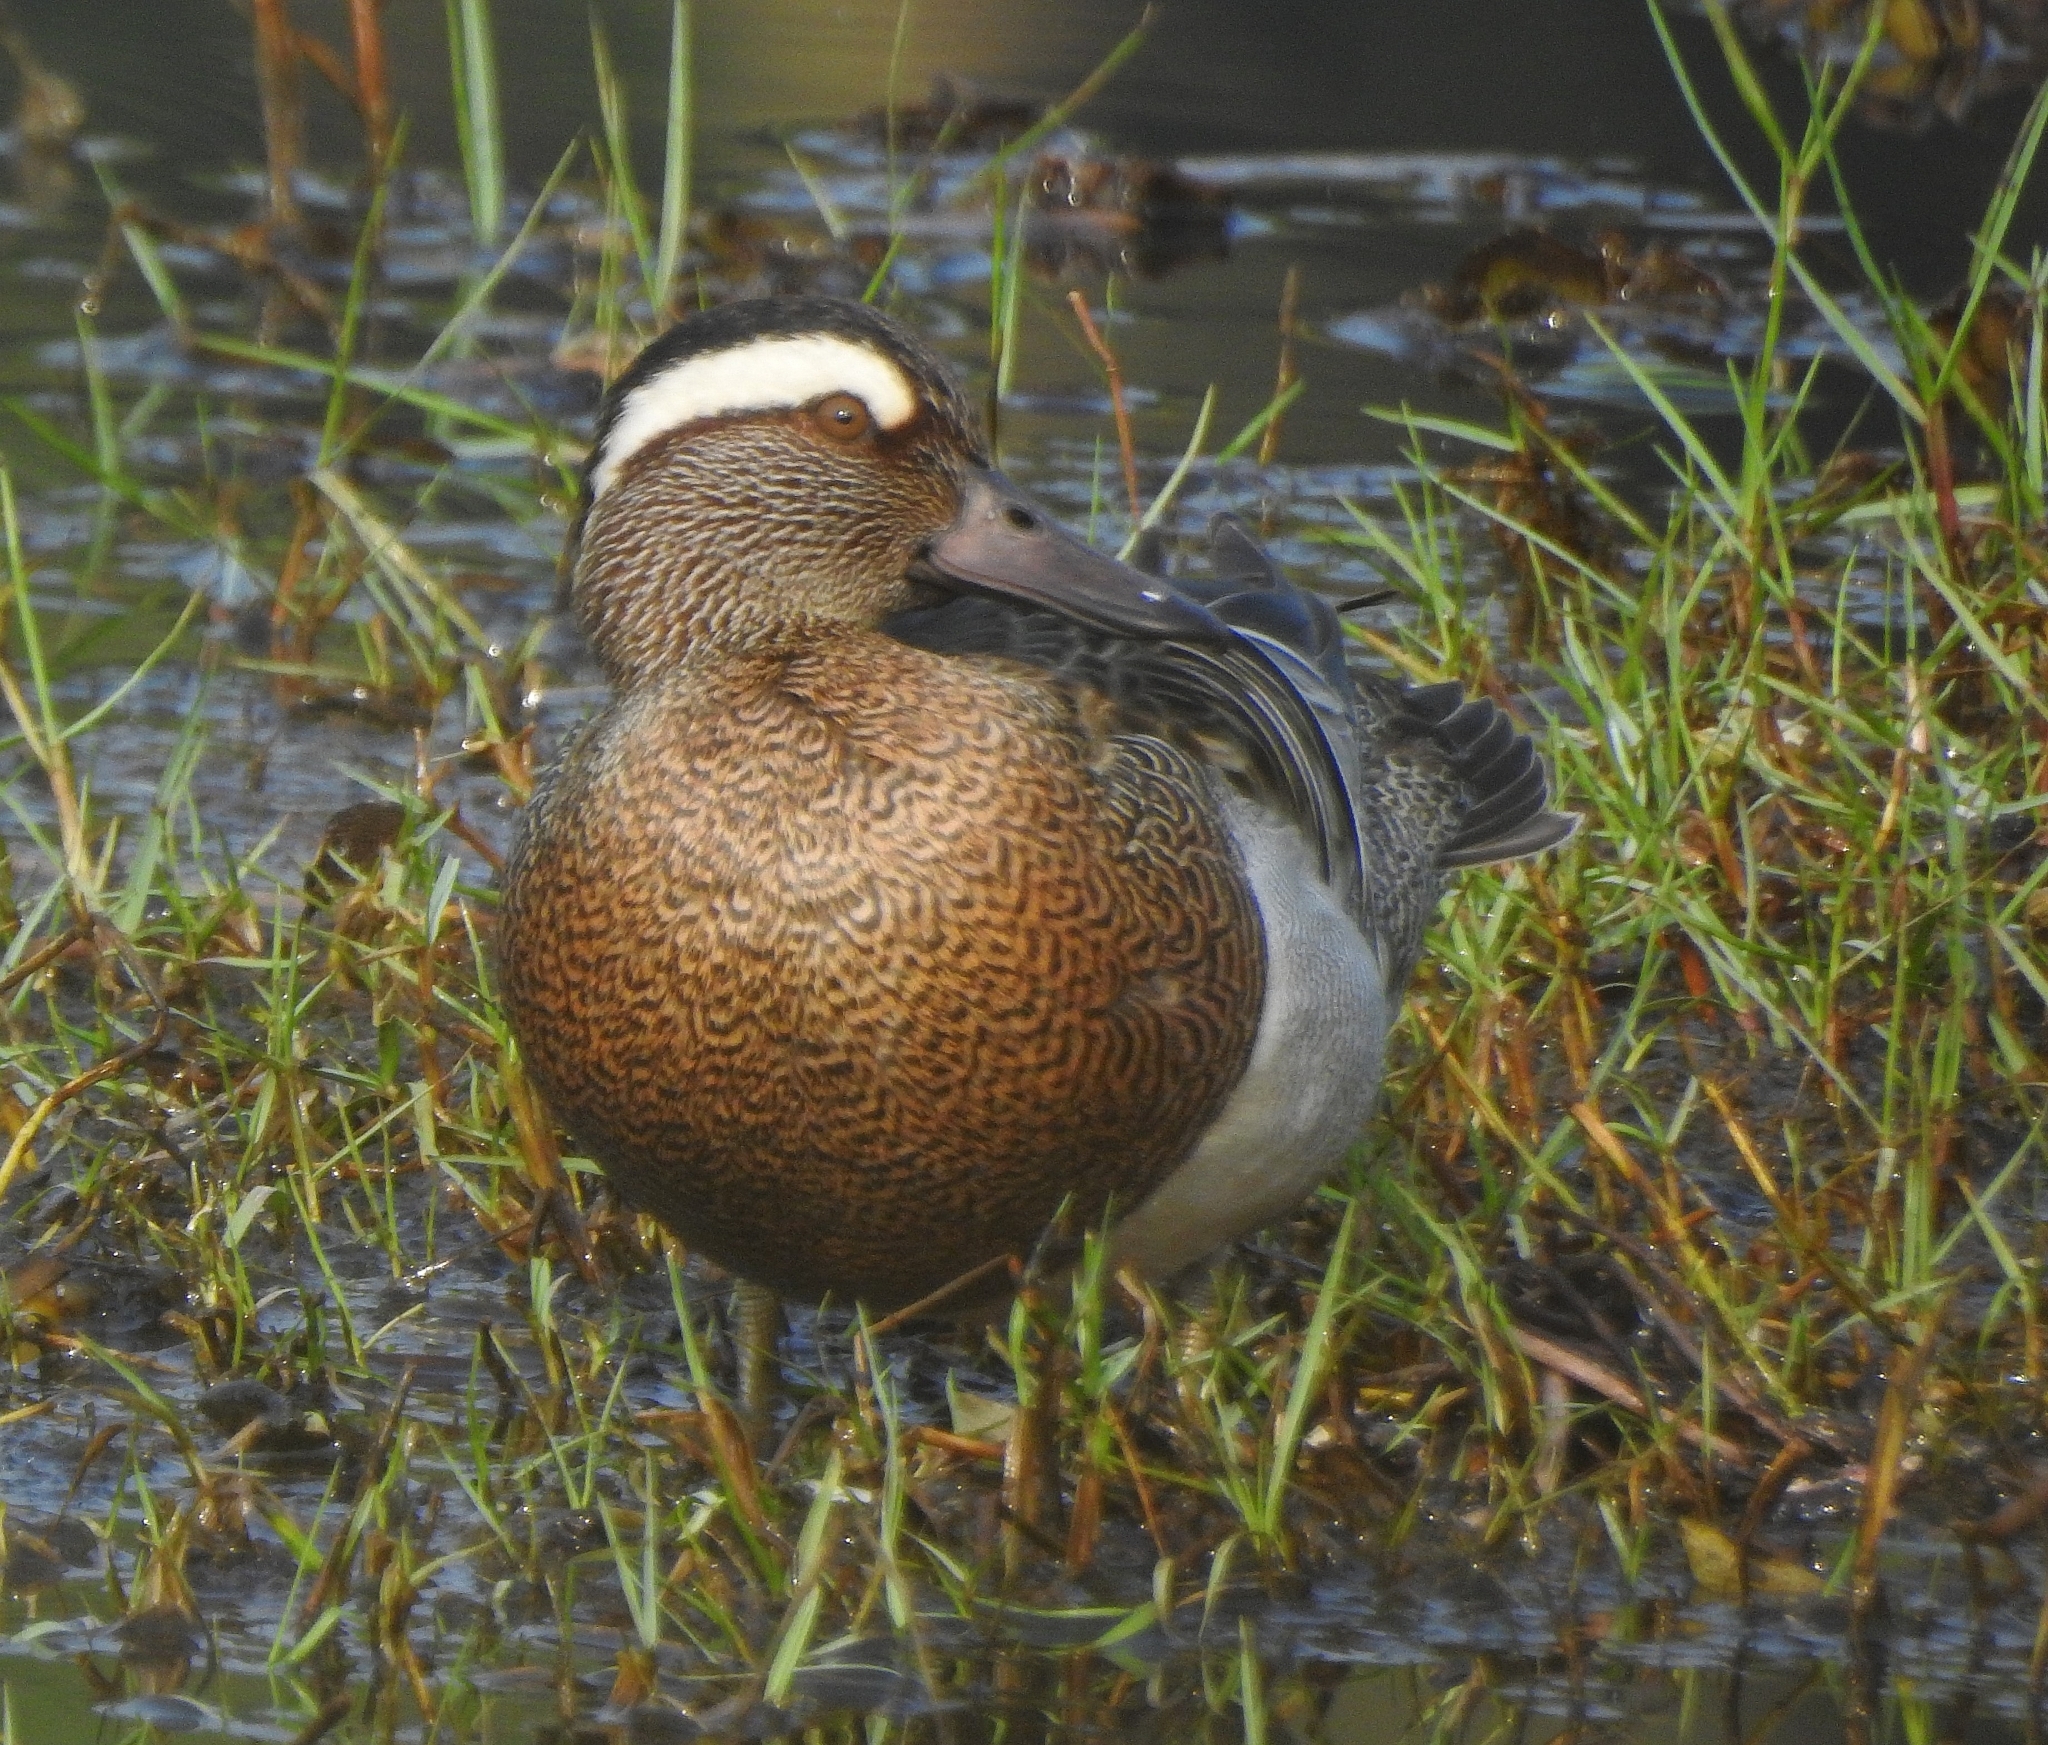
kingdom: Animalia
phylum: Chordata
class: Aves
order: Anseriformes
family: Anatidae
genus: Spatula
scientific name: Spatula querquedula
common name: Garganey
